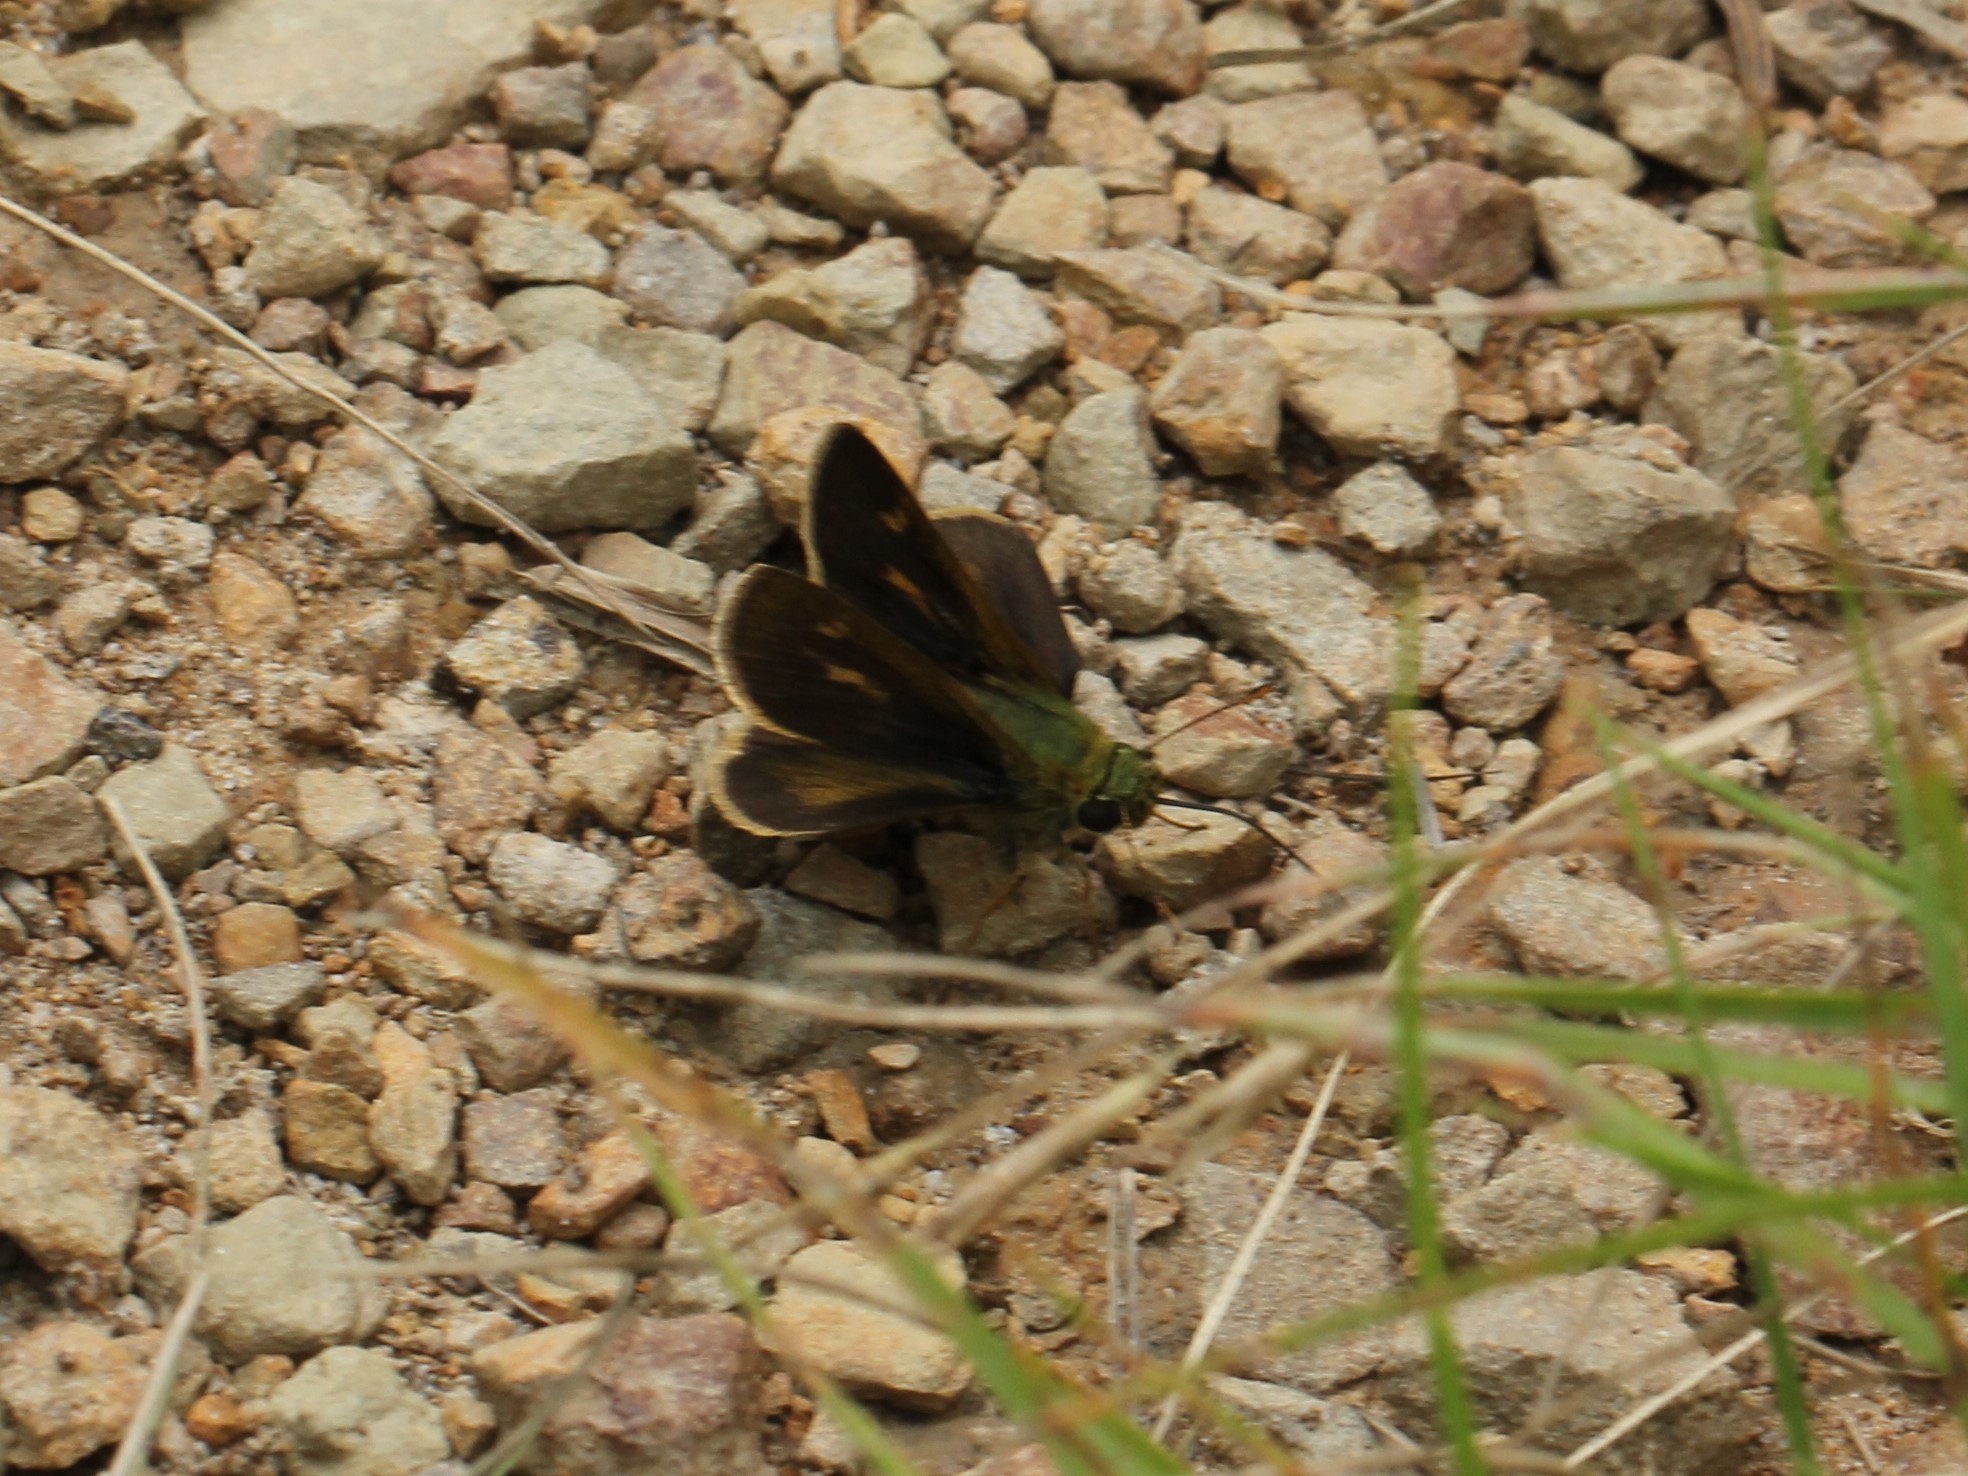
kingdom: Animalia
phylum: Arthropoda
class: Insecta
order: Lepidoptera
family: Hesperiidae
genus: Polites
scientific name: Polites egeremet
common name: Northern broken-dash
